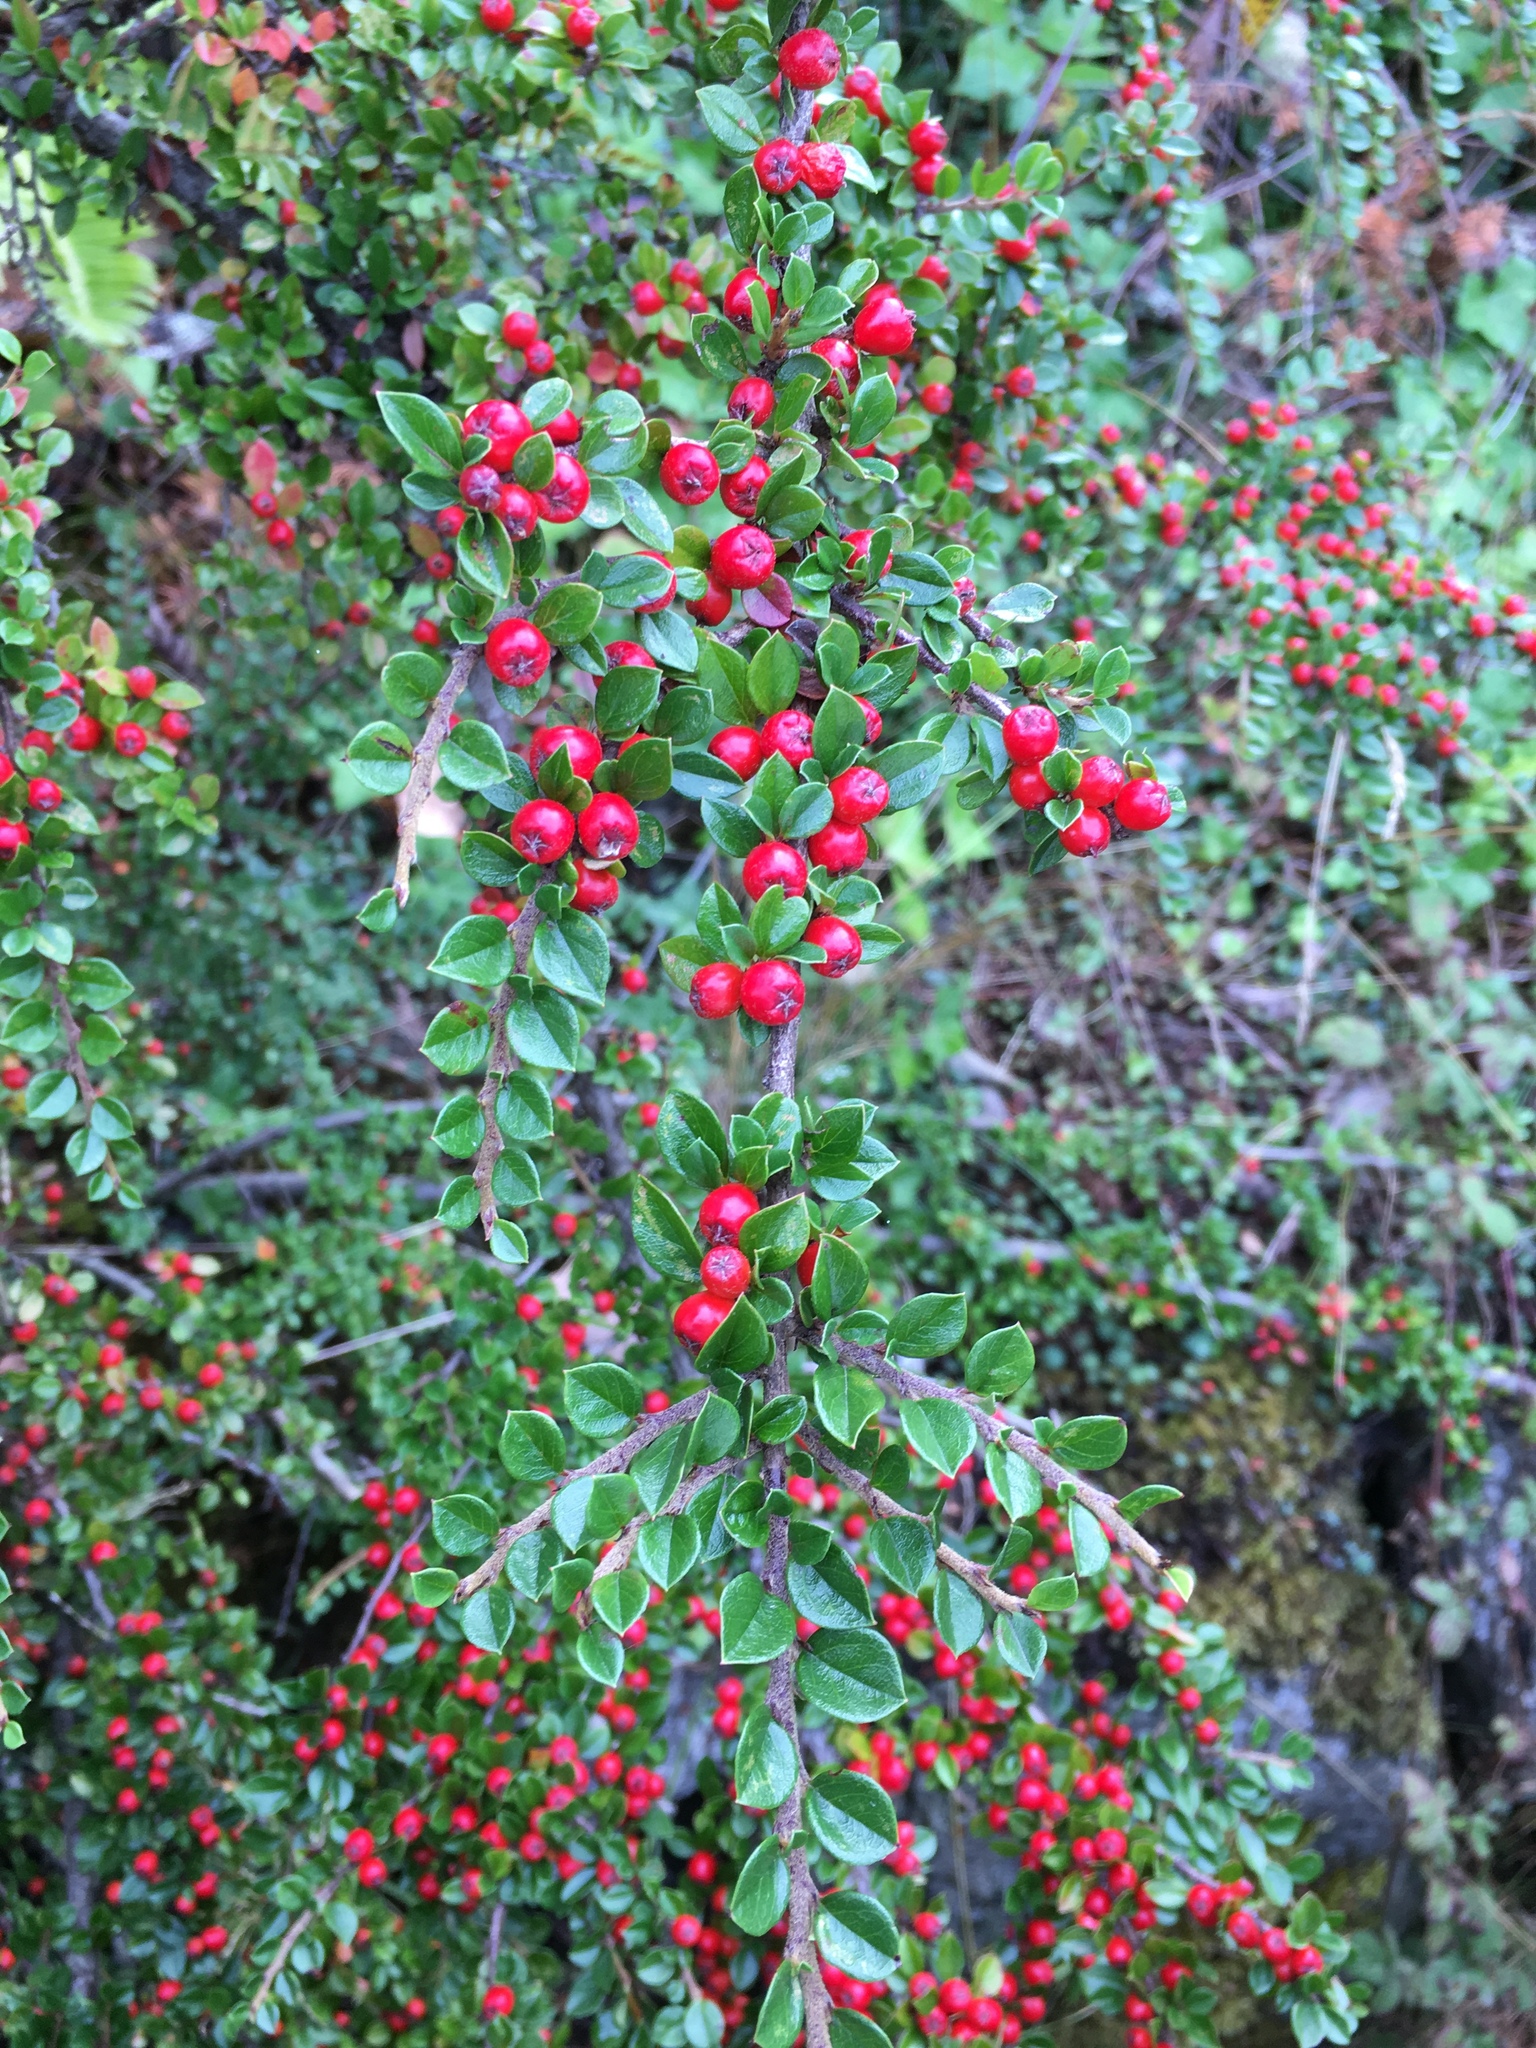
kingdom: Plantae
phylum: Tracheophyta
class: Magnoliopsida
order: Rosales
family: Rosaceae
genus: Cotoneaster
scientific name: Cotoneaster horizontalis
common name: Wall cotoneaster
